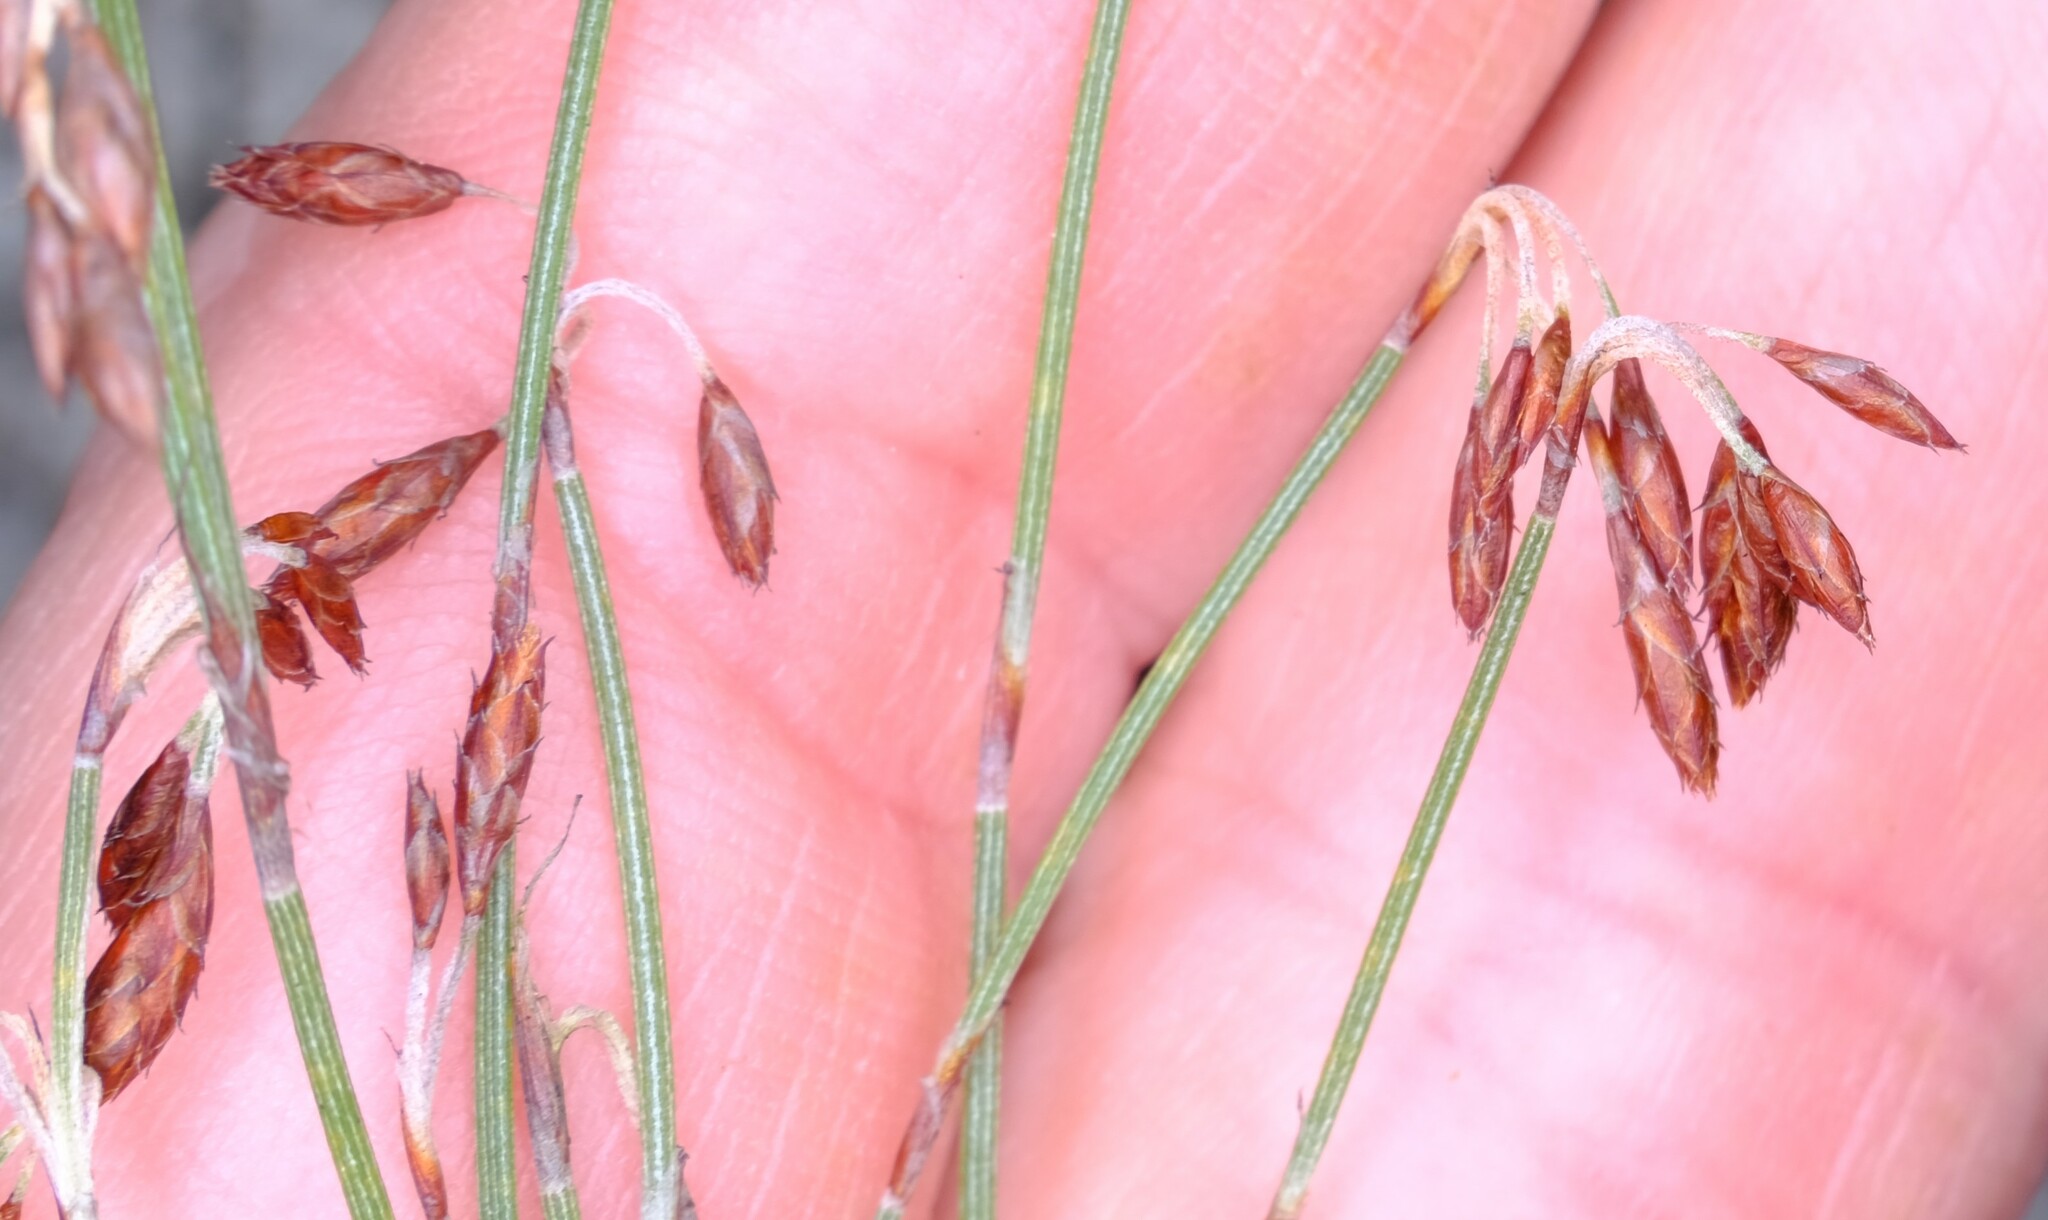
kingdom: Plantae
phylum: Tracheophyta
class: Liliopsida
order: Poales
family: Restionaceae
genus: Hypolaena
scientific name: Hypolaena fastigiata
